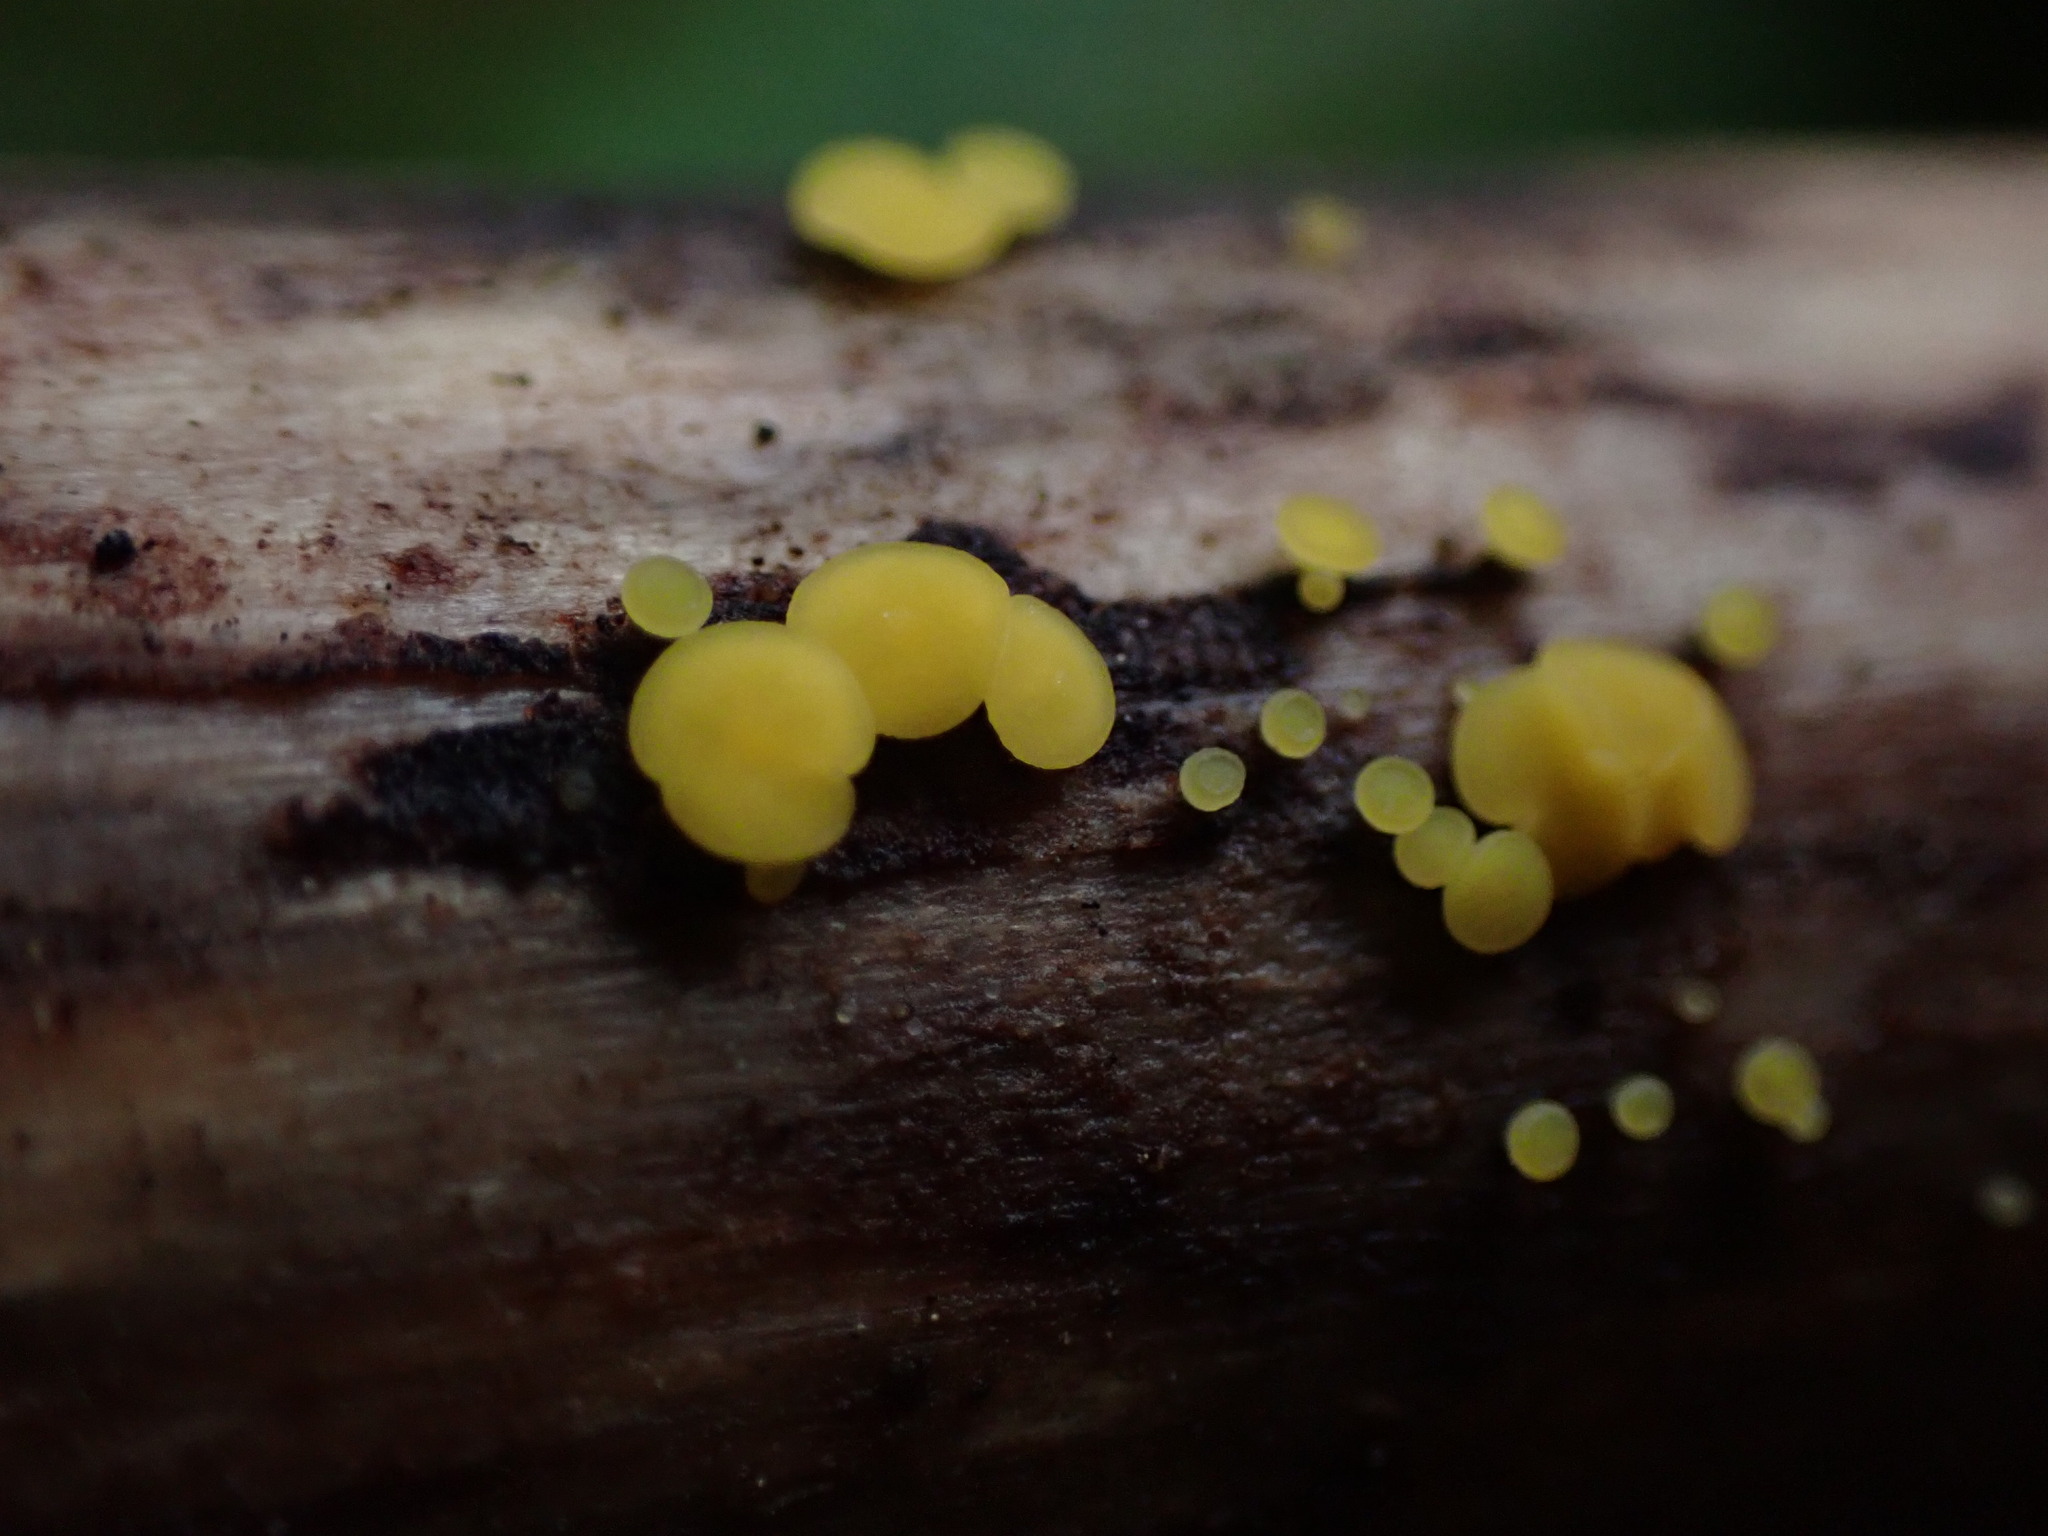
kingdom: Fungi
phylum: Ascomycota
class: Leotiomycetes
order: Helotiales
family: Pezizellaceae
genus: Calycina
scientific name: Calycina citrina
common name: Yellow fairy cups
